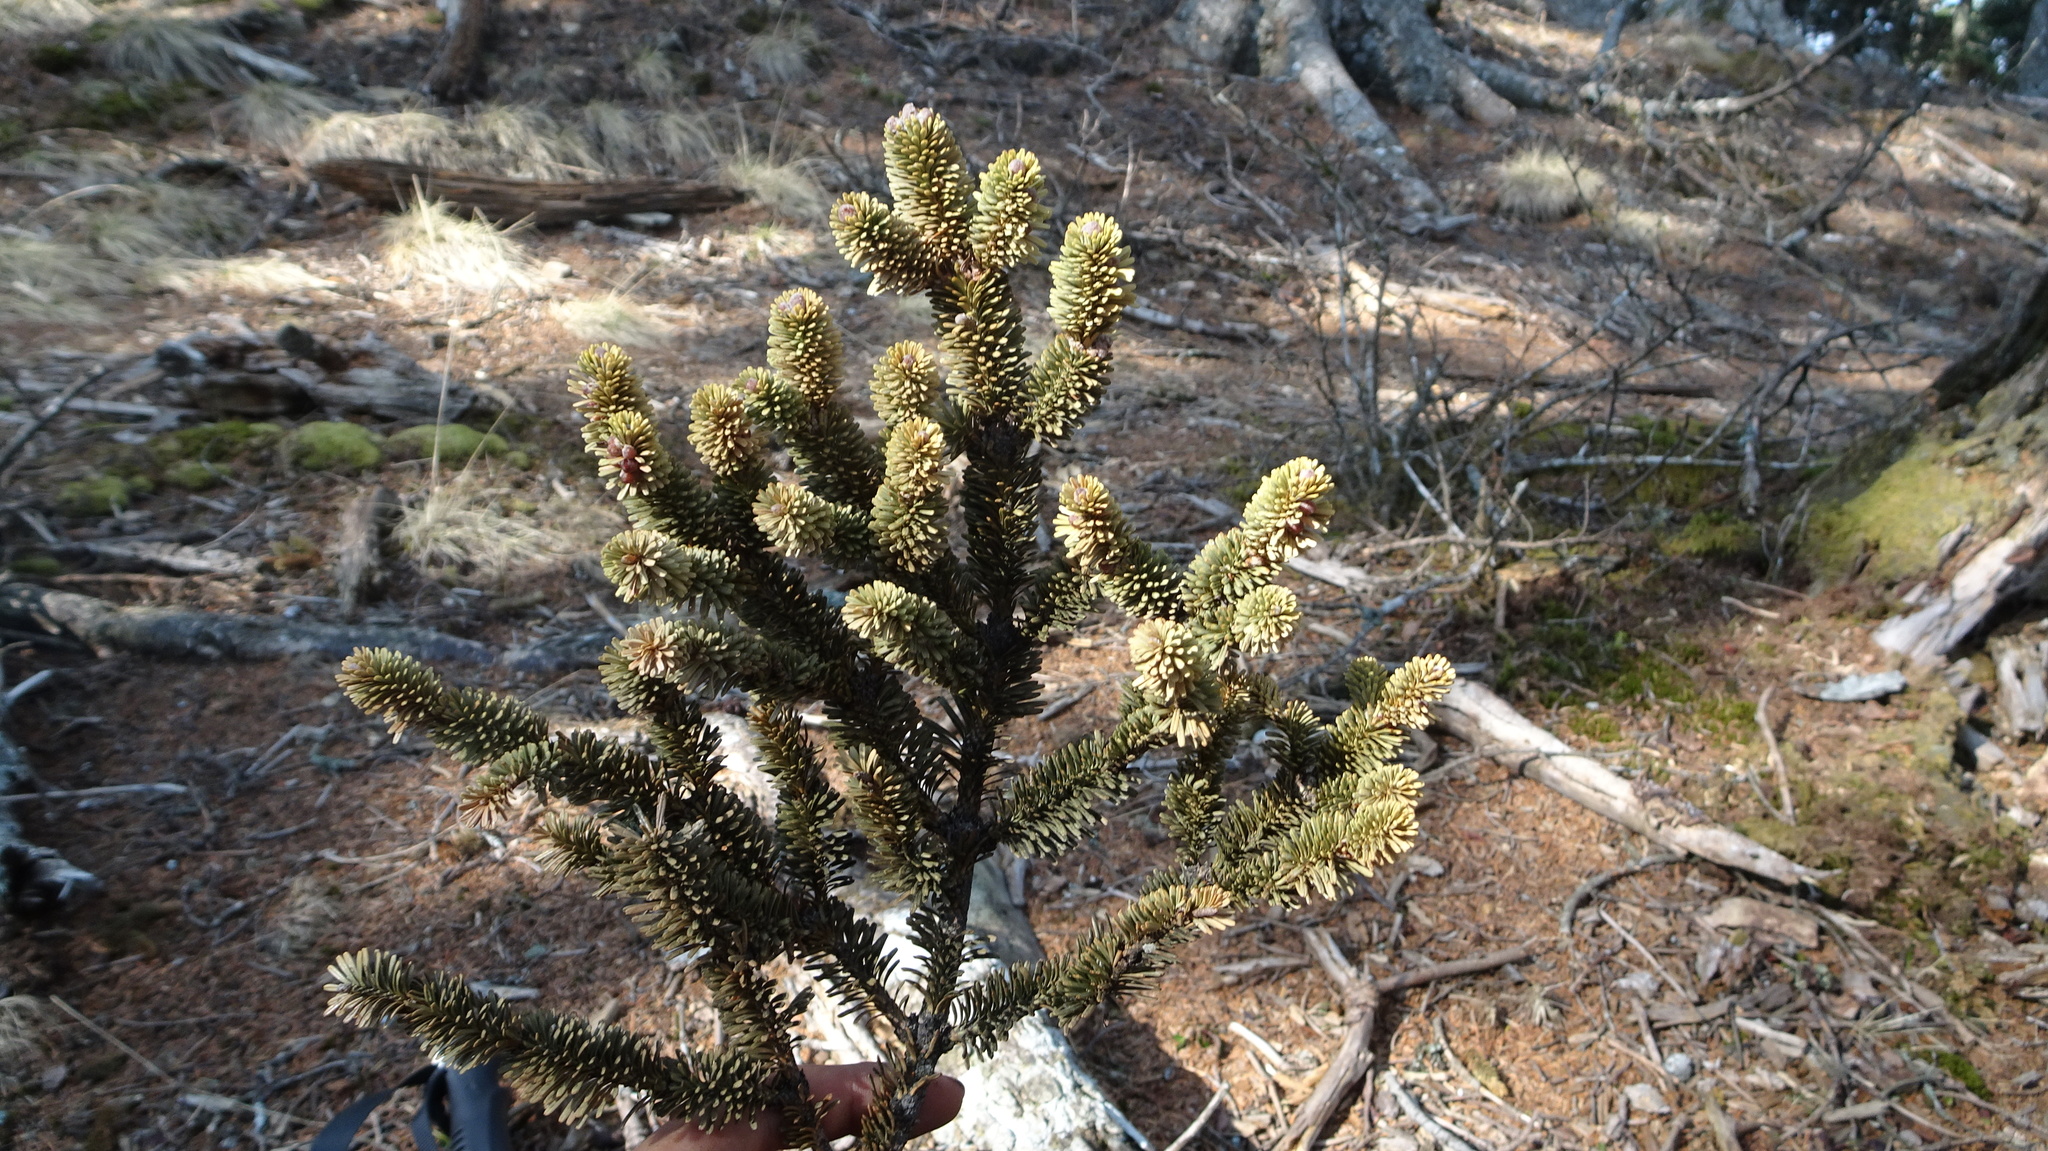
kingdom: Plantae
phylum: Tracheophyta
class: Pinopsida
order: Pinales
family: Pinaceae
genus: Abies
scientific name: Abies kawakamii
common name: Taiwan fir
